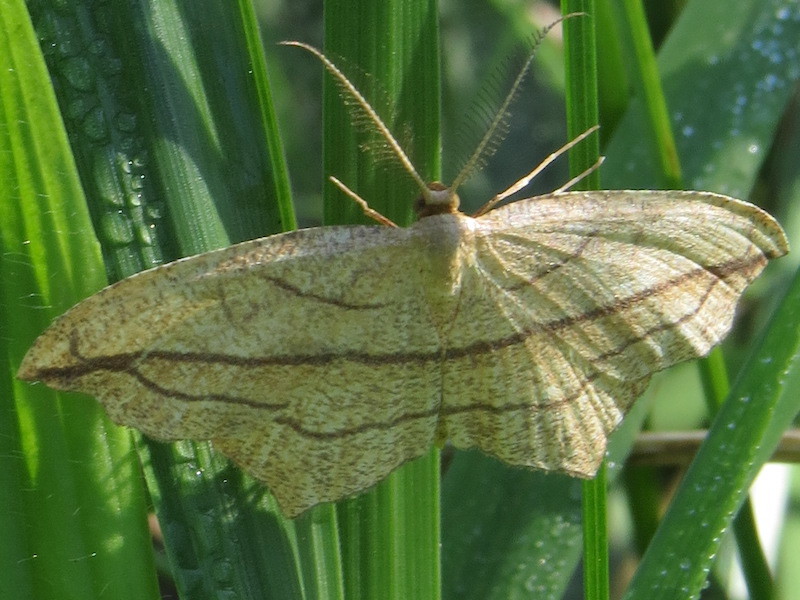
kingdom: Animalia
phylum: Arthropoda
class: Insecta
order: Lepidoptera
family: Geometridae
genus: Timandra
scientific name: Timandra amaturaria
